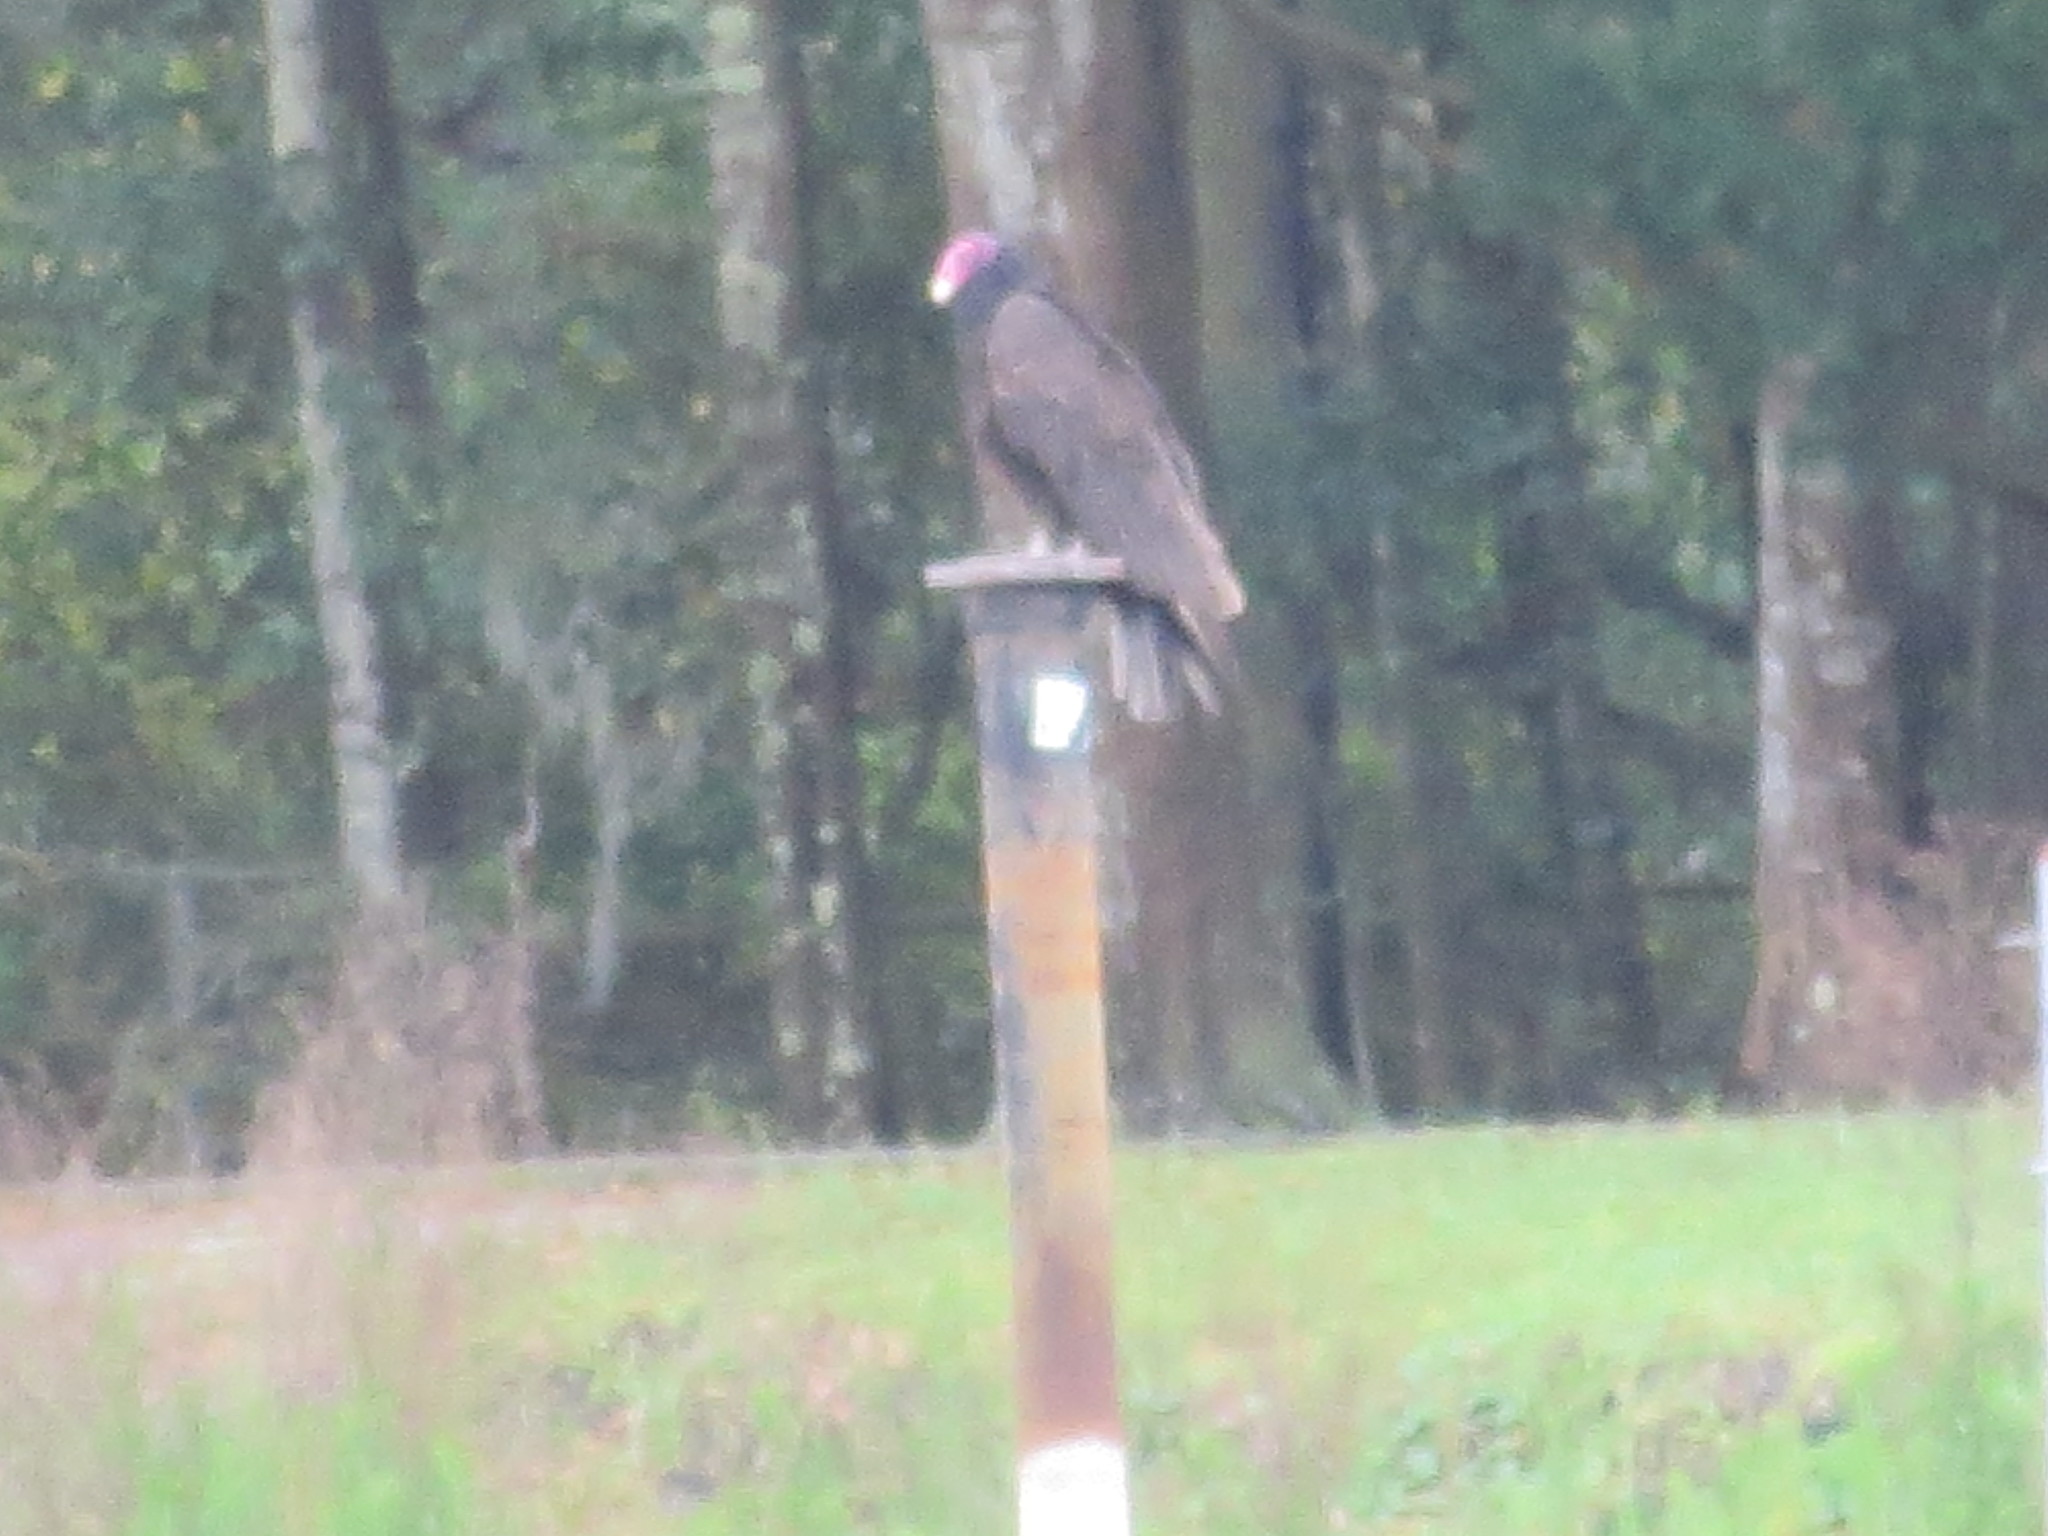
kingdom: Animalia
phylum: Chordata
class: Aves
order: Accipitriformes
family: Cathartidae
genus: Cathartes
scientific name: Cathartes aura
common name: Turkey vulture
